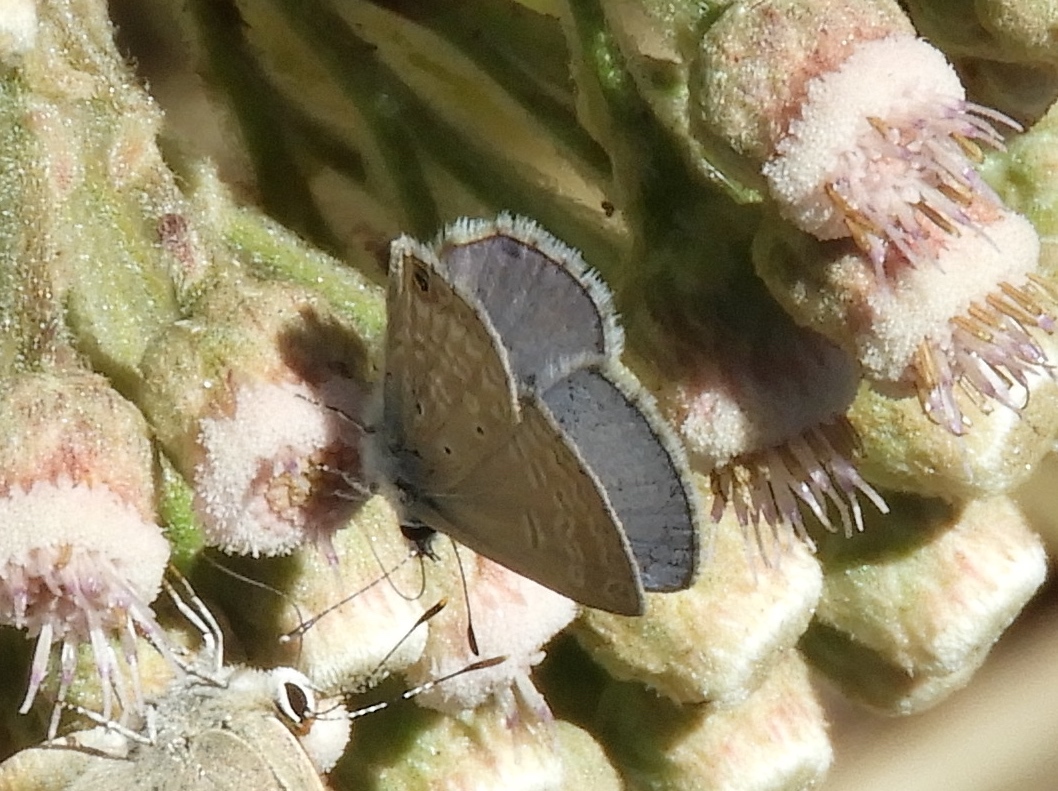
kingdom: Animalia
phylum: Arthropoda
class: Insecta
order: Lepidoptera
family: Lycaenidae
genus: Hemiargus
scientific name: Hemiargus ceraunus
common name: Ceraunus blue
